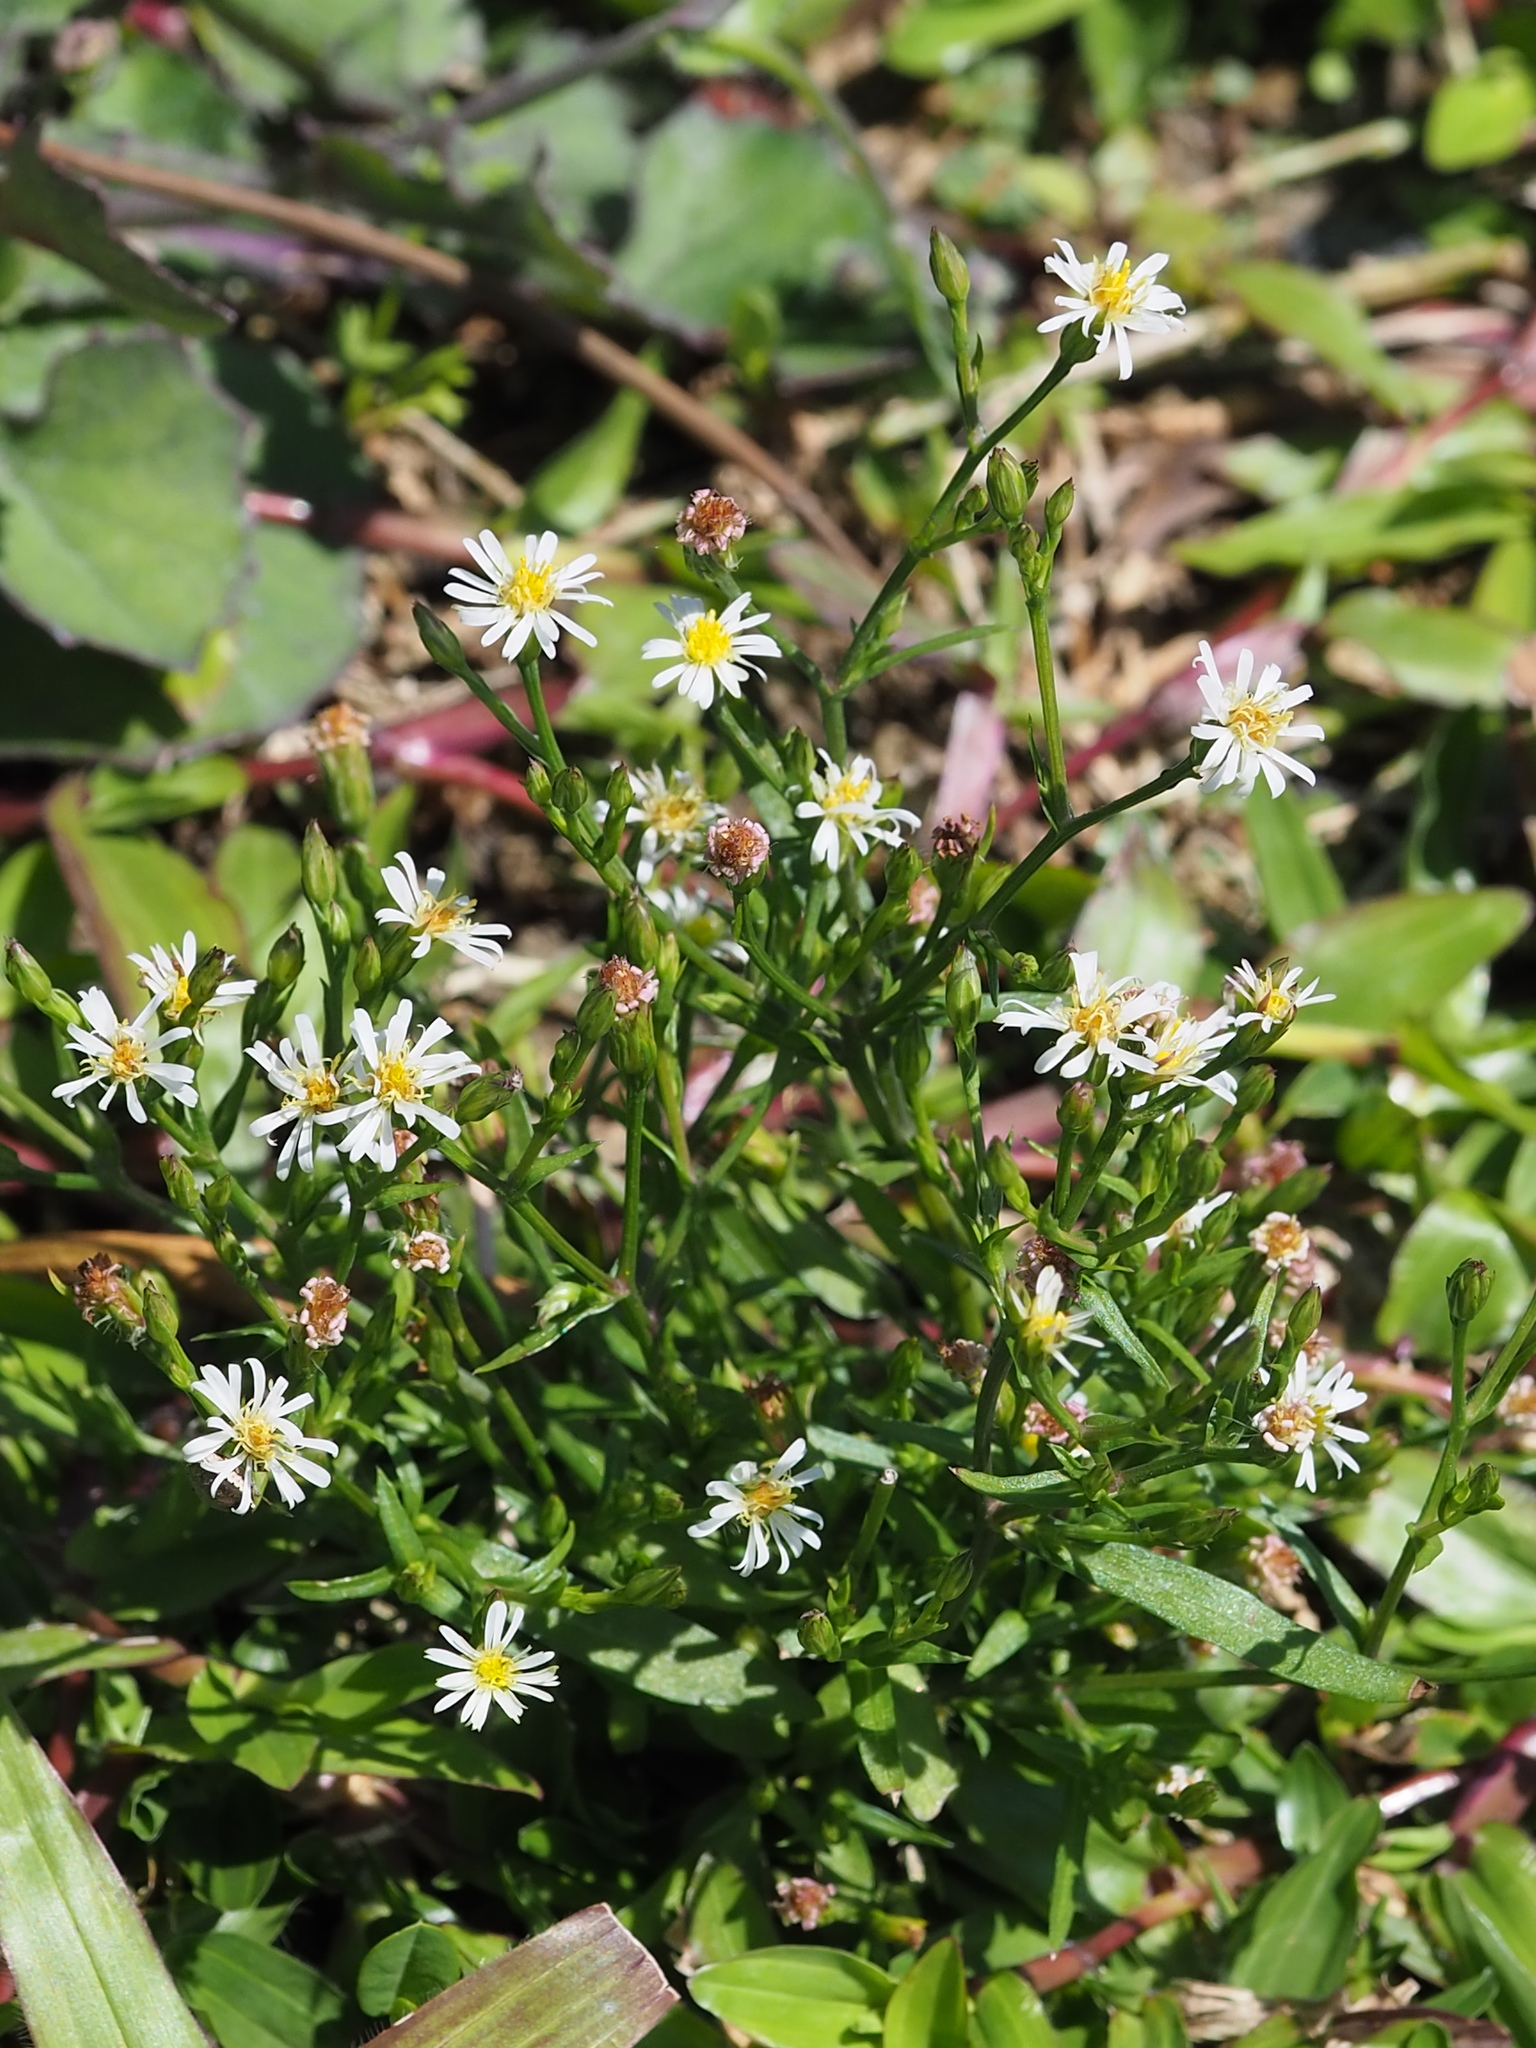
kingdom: Plantae
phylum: Tracheophyta
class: Magnoliopsida
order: Asterales
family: Asteraceae
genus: Symphyotrichum
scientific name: Symphyotrichum subulatum
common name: Annual saltmarsh aster
